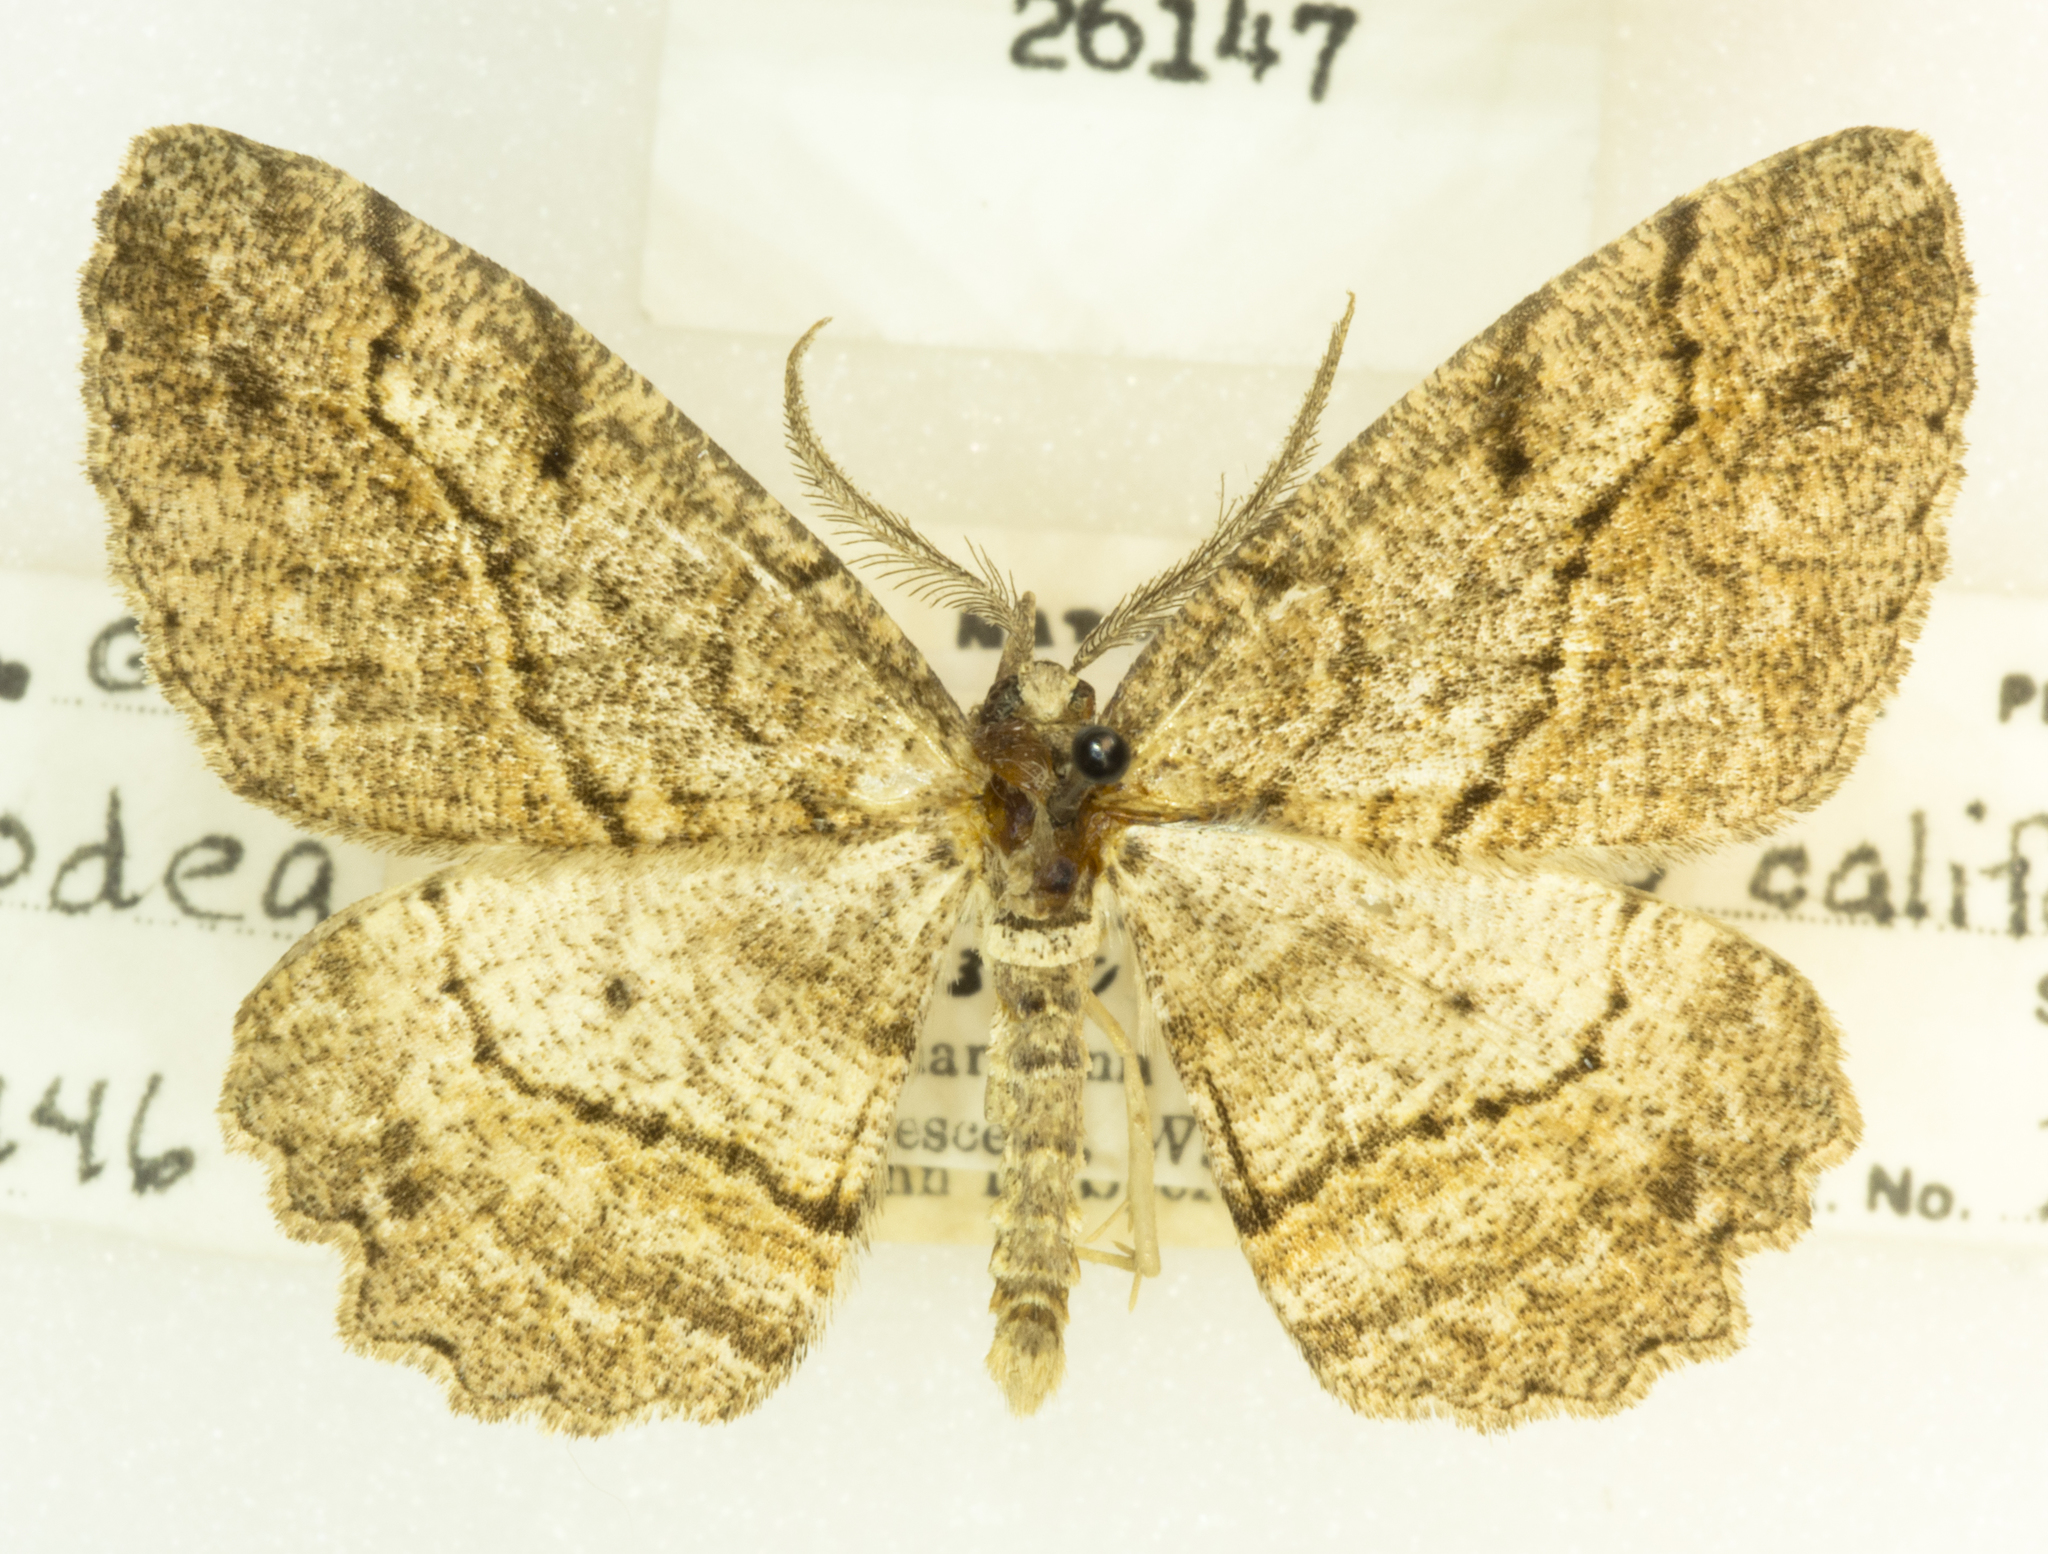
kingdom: Animalia
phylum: Arthropoda
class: Insecta
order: Lepidoptera
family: Geometridae
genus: Neoalcis
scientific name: Neoalcis californiaria
